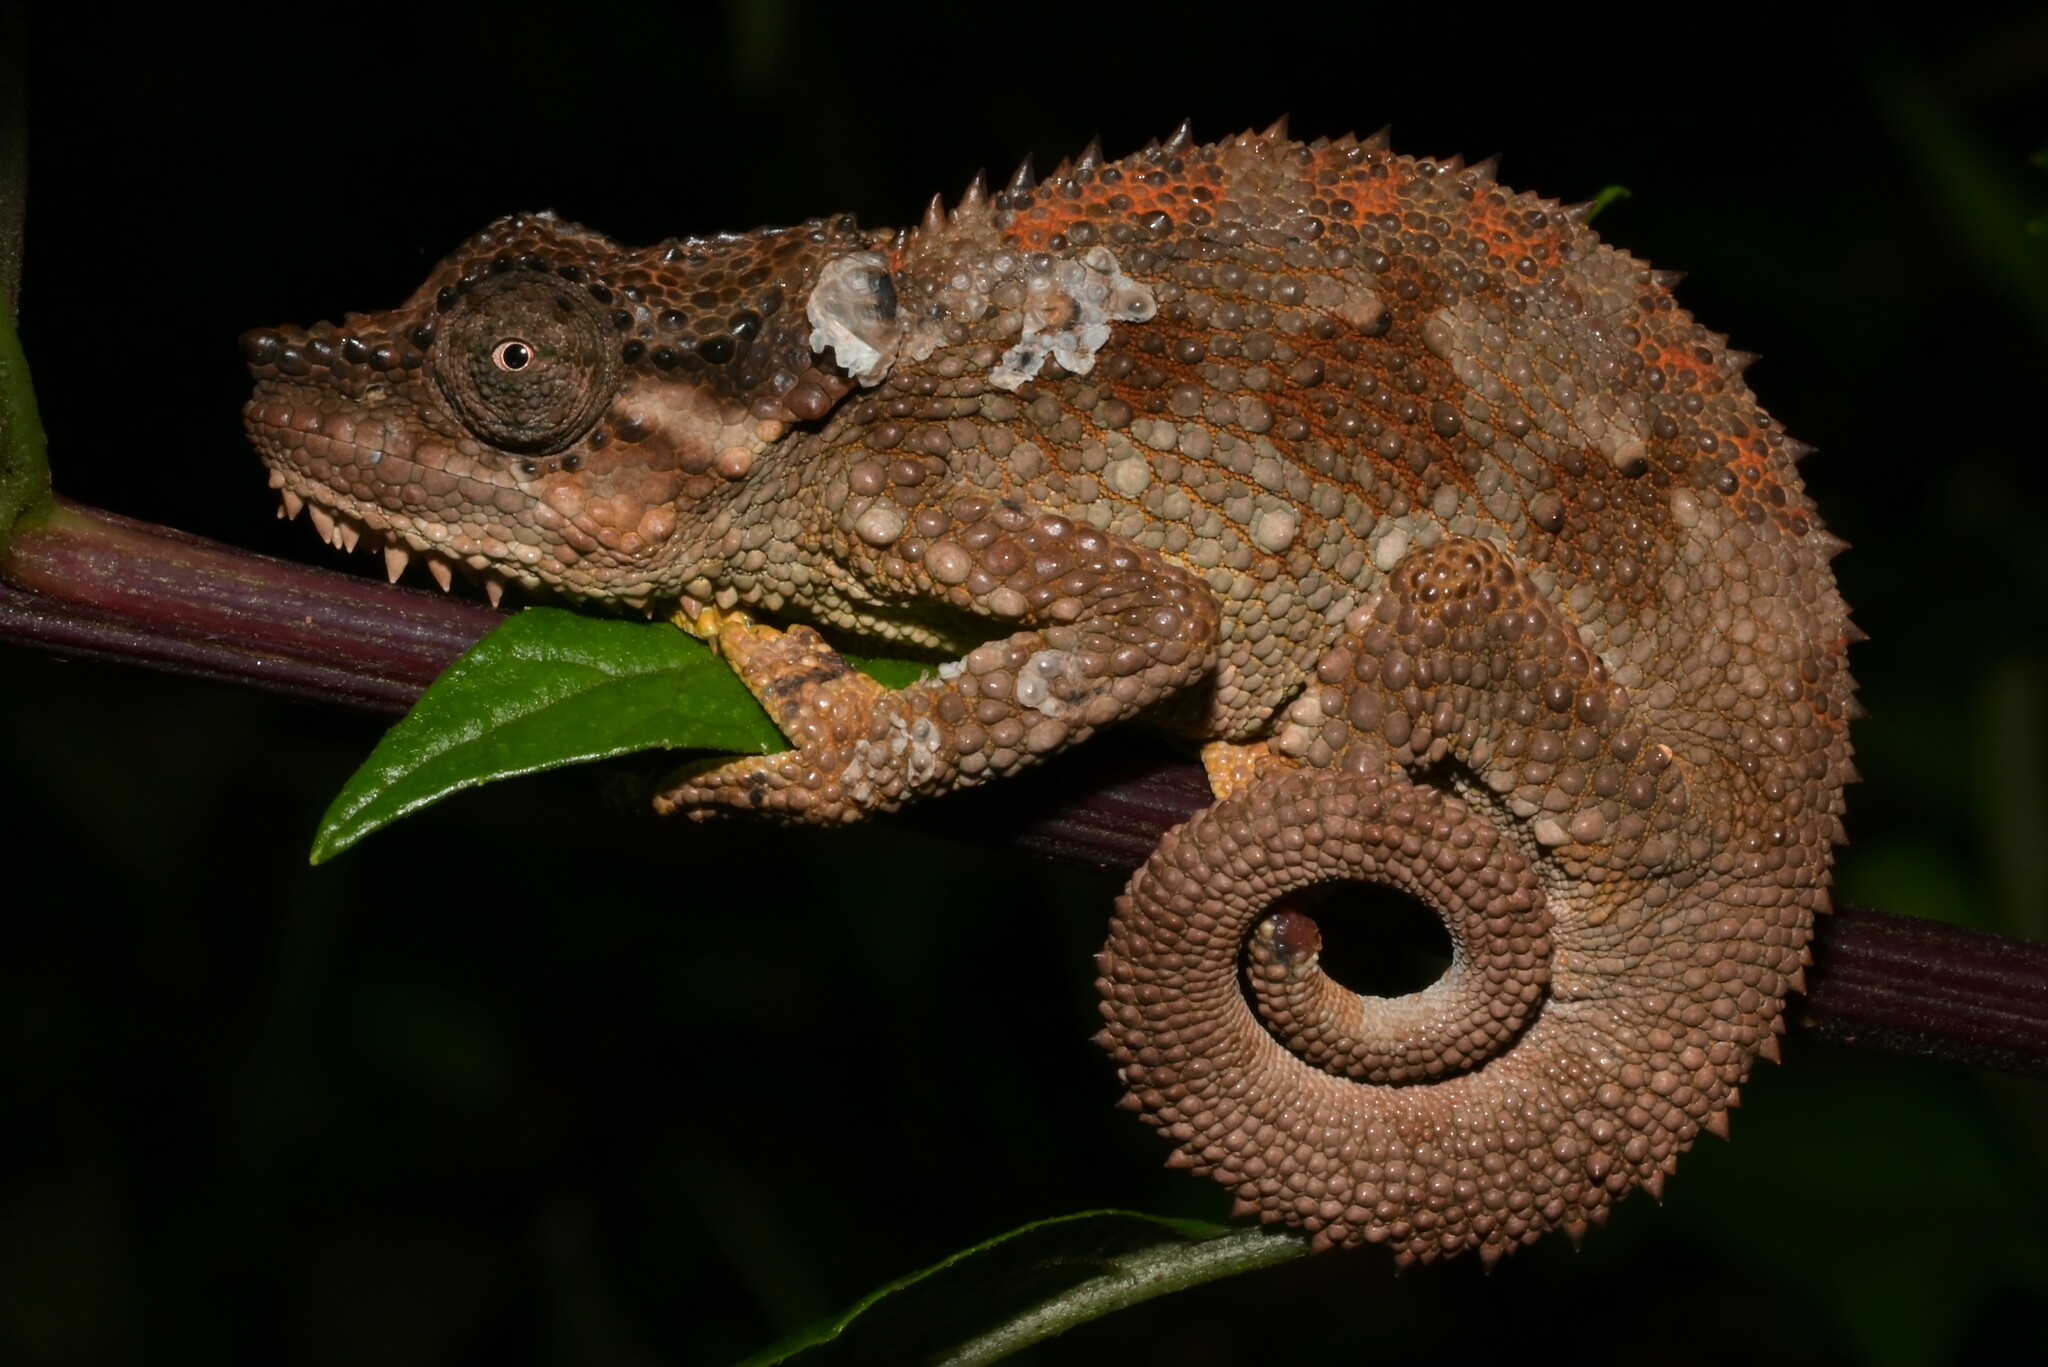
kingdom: Animalia
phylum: Chordata
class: Squamata
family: Chamaeleonidae
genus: Trioceros
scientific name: Trioceros tempeli
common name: Tanzania mountain chameleon
